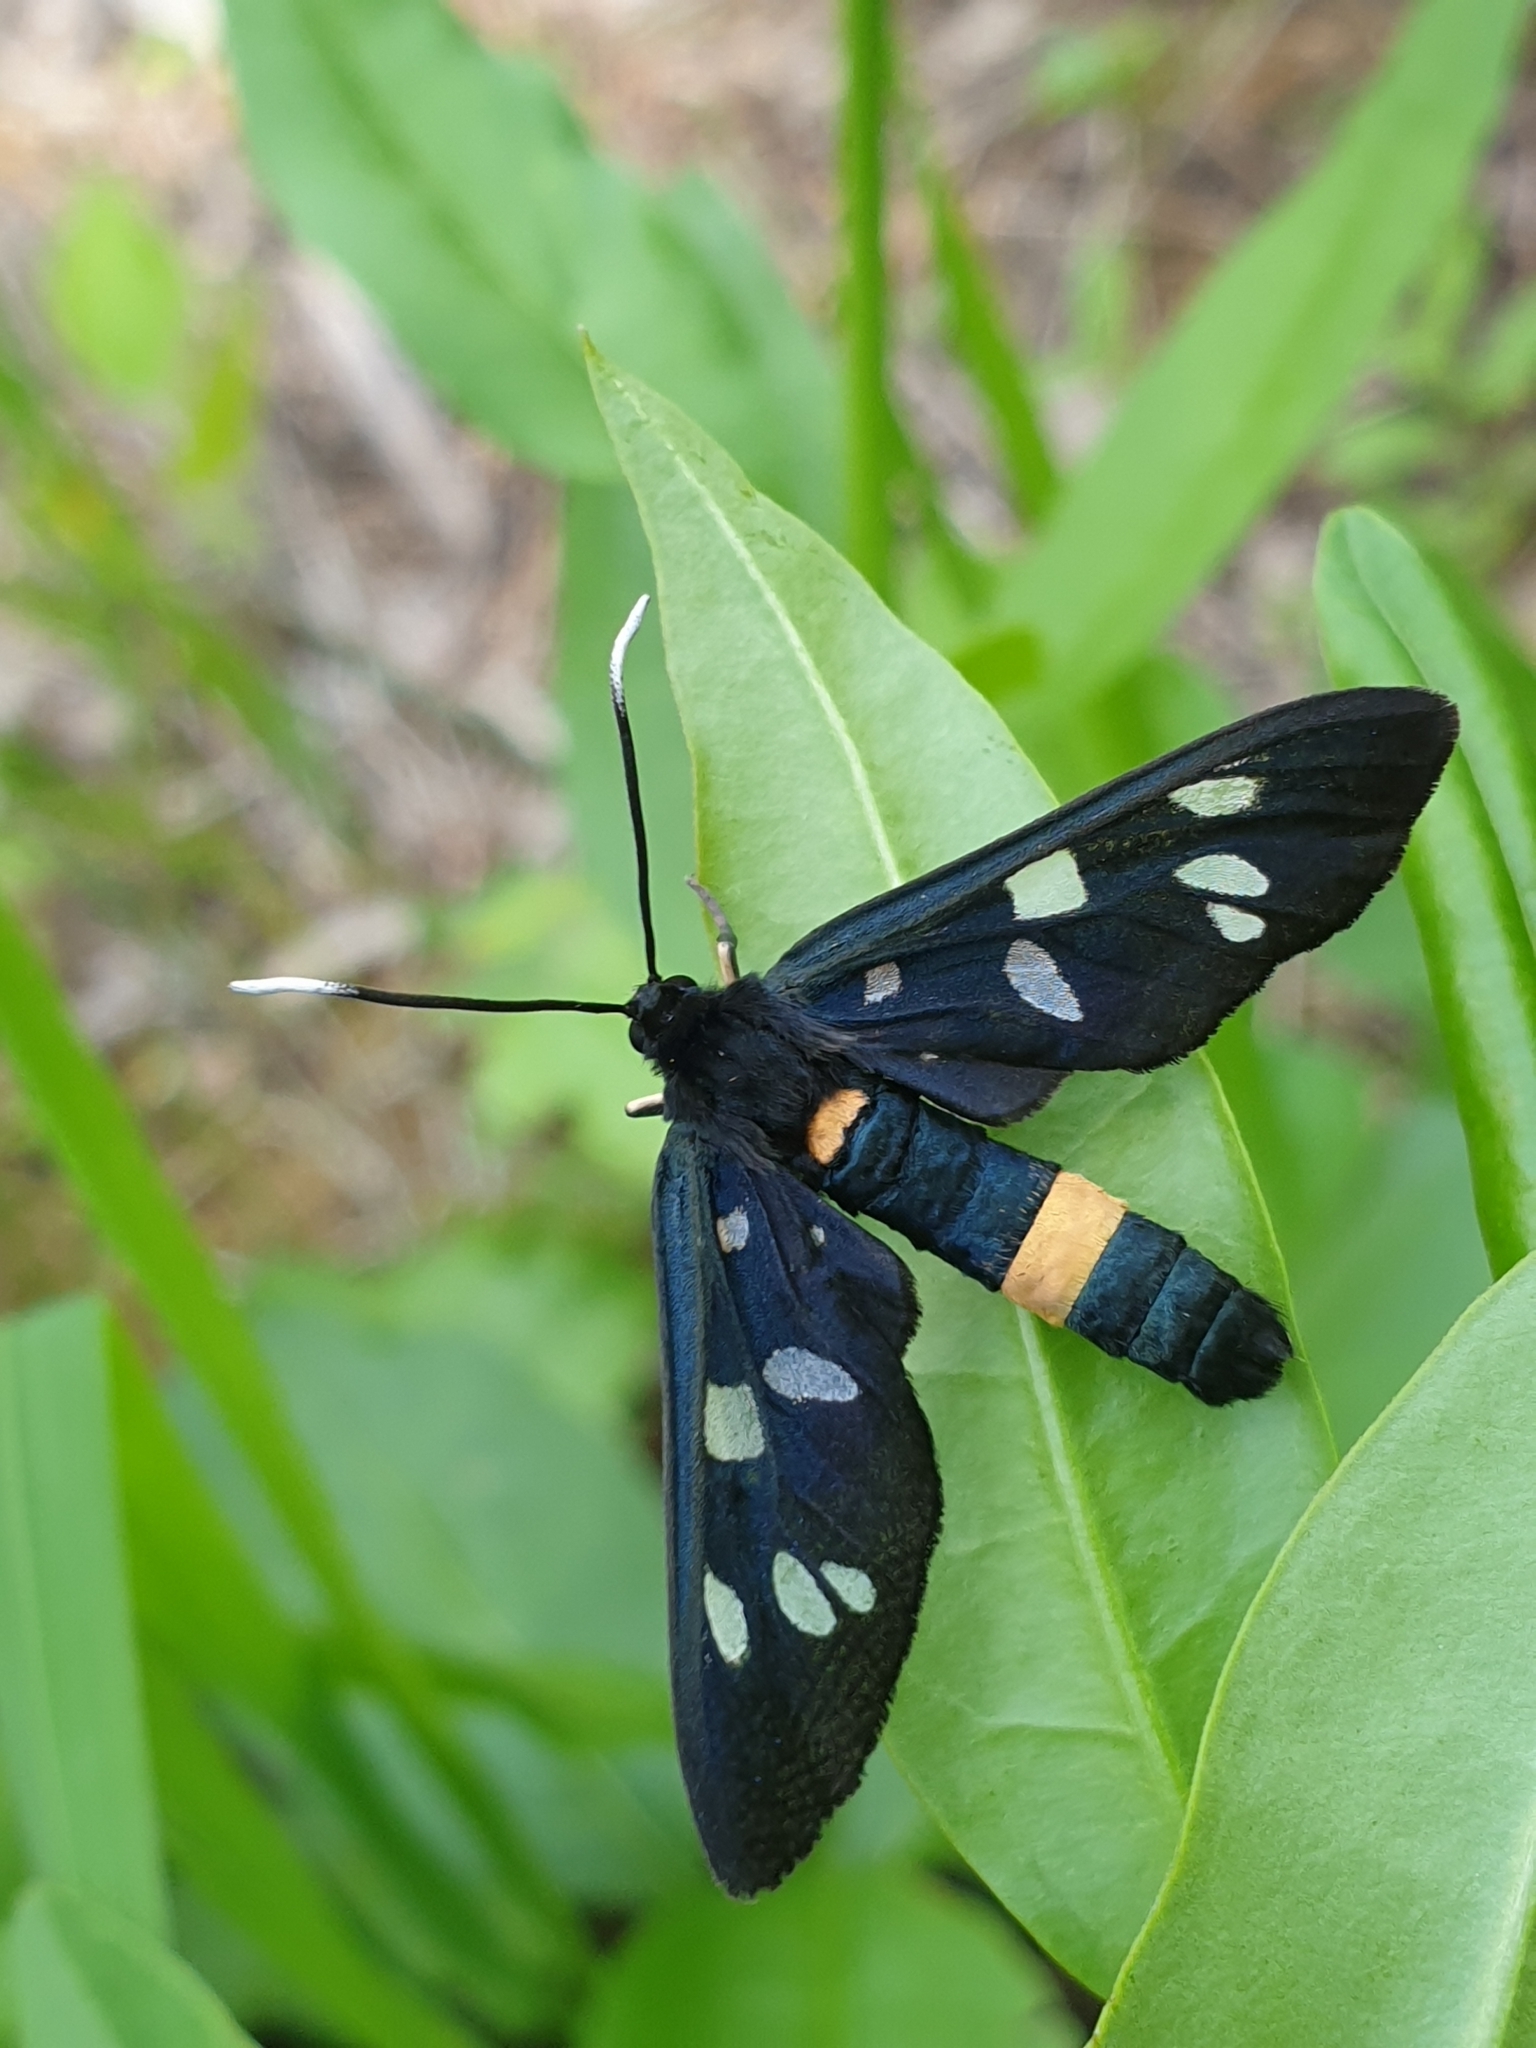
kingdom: Animalia
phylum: Arthropoda
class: Insecta
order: Lepidoptera
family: Erebidae
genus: Amata
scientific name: Amata phegea
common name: Nine-spotted
